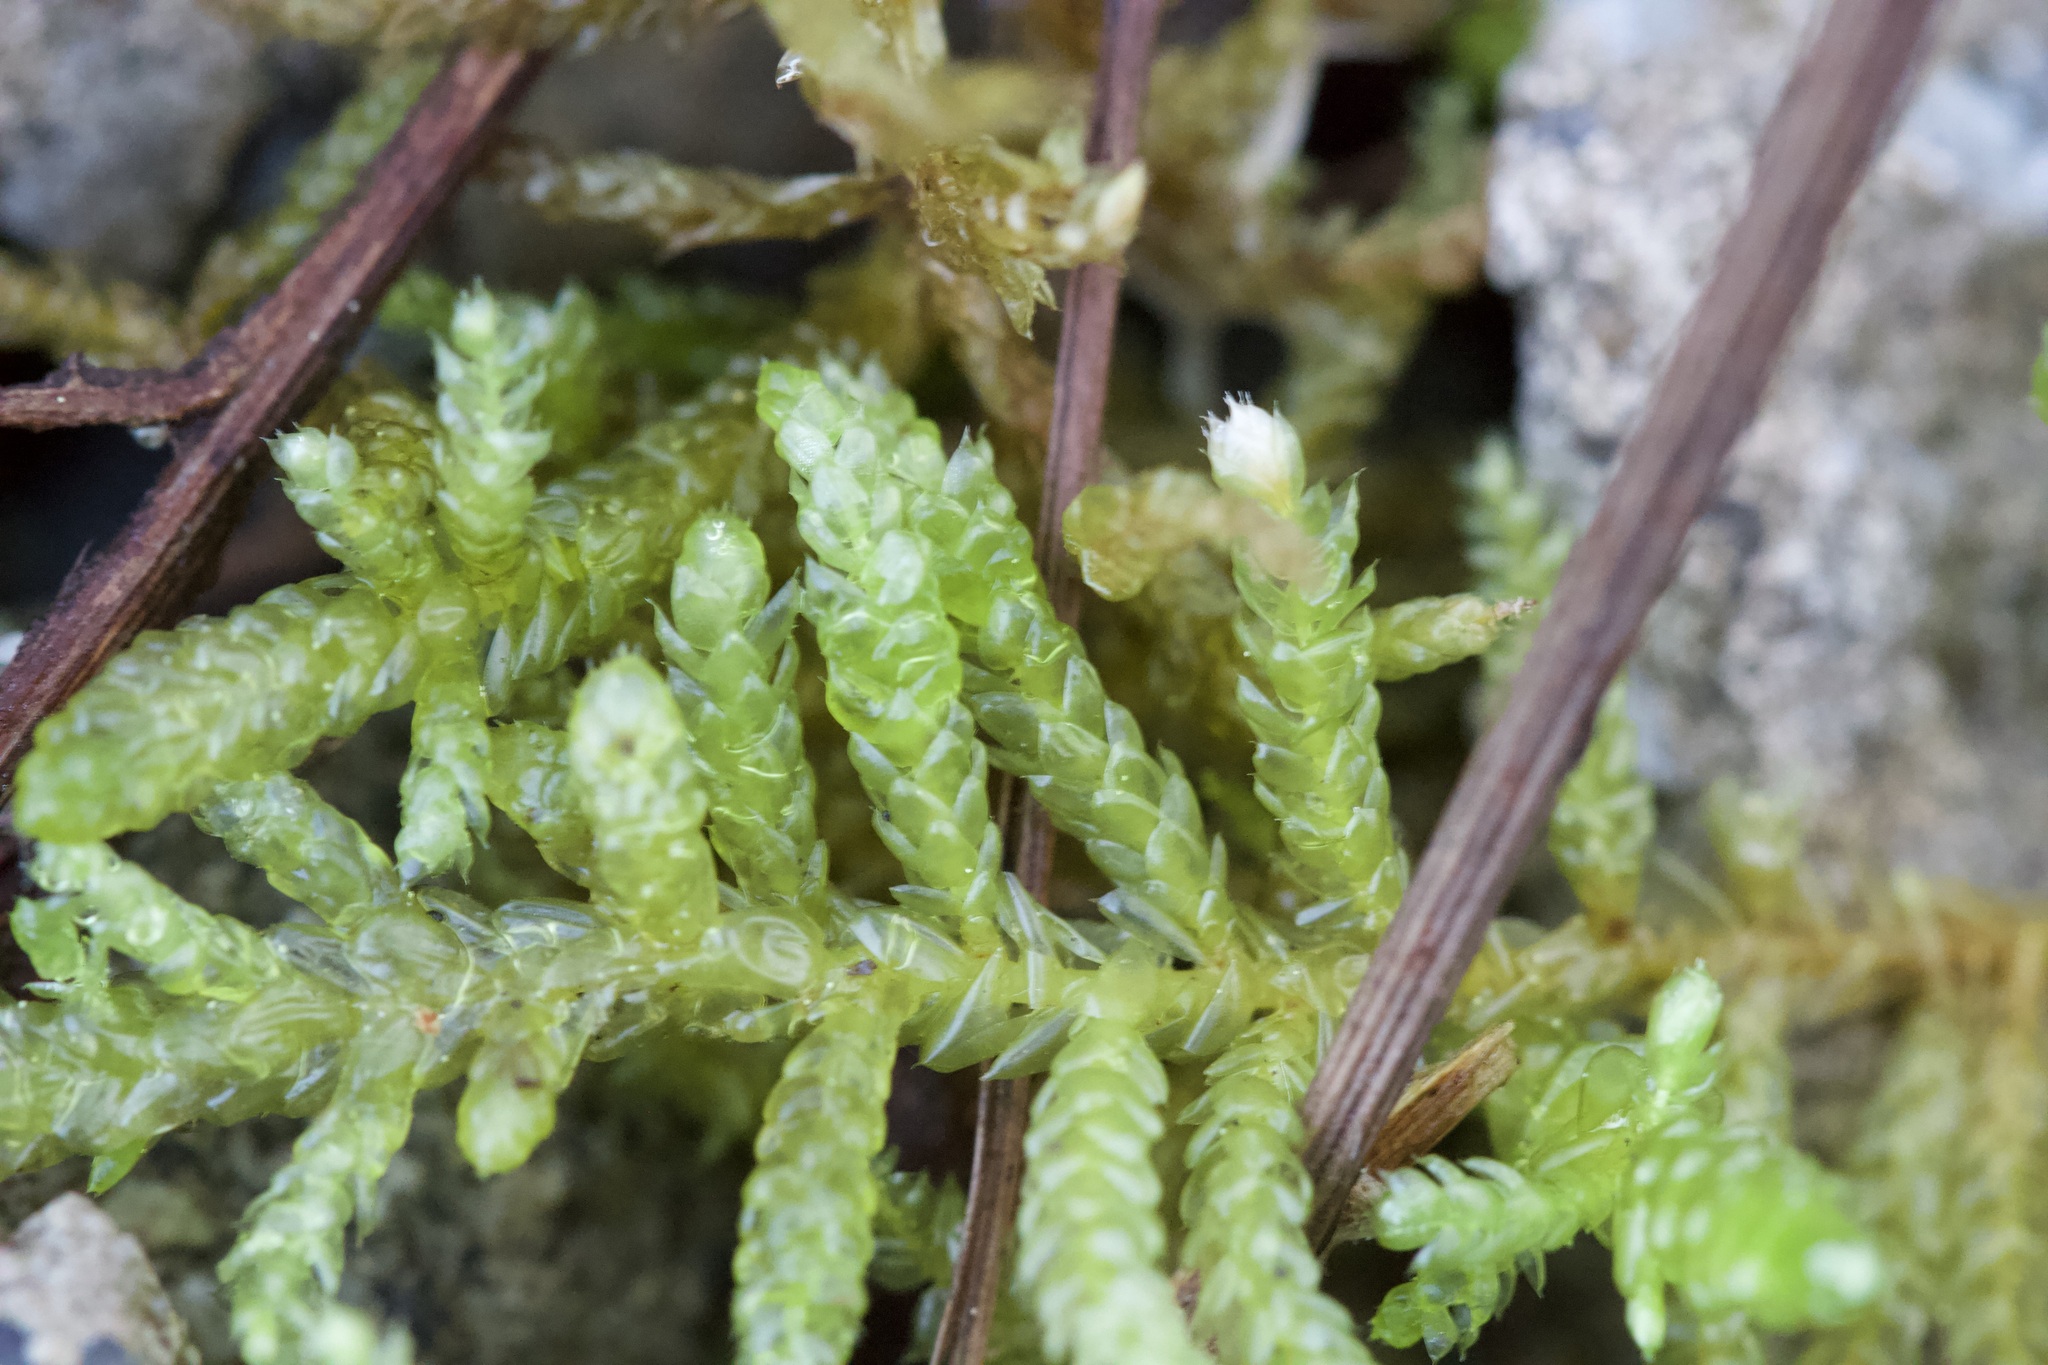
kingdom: Plantae
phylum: Bryophyta
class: Bryopsida
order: Hypnales
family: Brachytheciaceae
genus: Pseudoscleropodium
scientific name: Pseudoscleropodium purum
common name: Neat feather-moss
